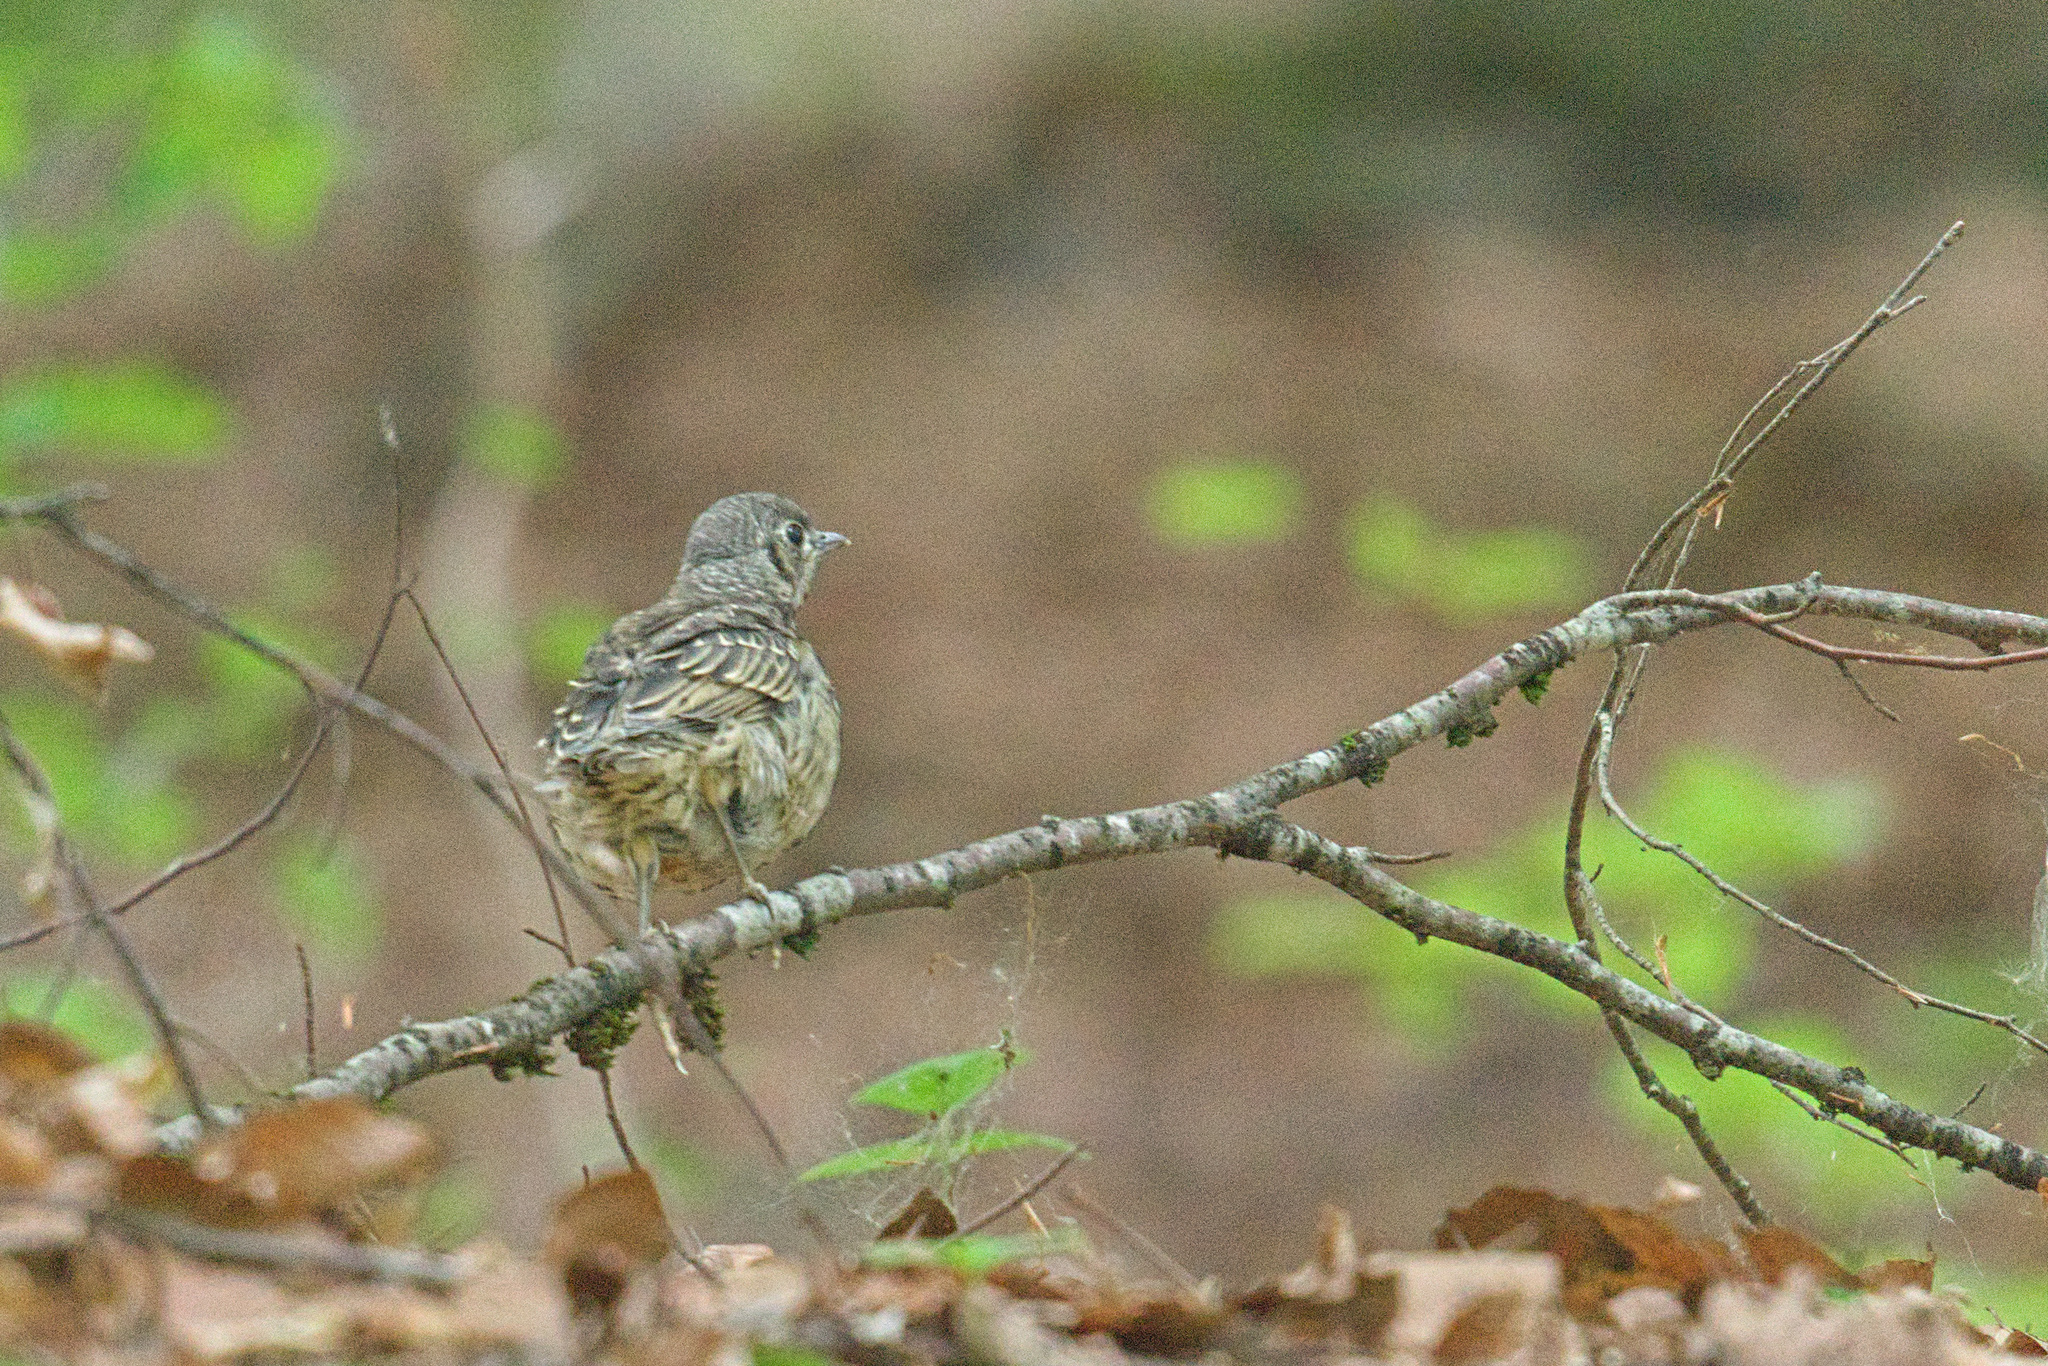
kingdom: Animalia
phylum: Chordata
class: Aves
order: Passeriformes
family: Turdidae
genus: Turdus
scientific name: Turdus viscivorus
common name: Mistle thrush
